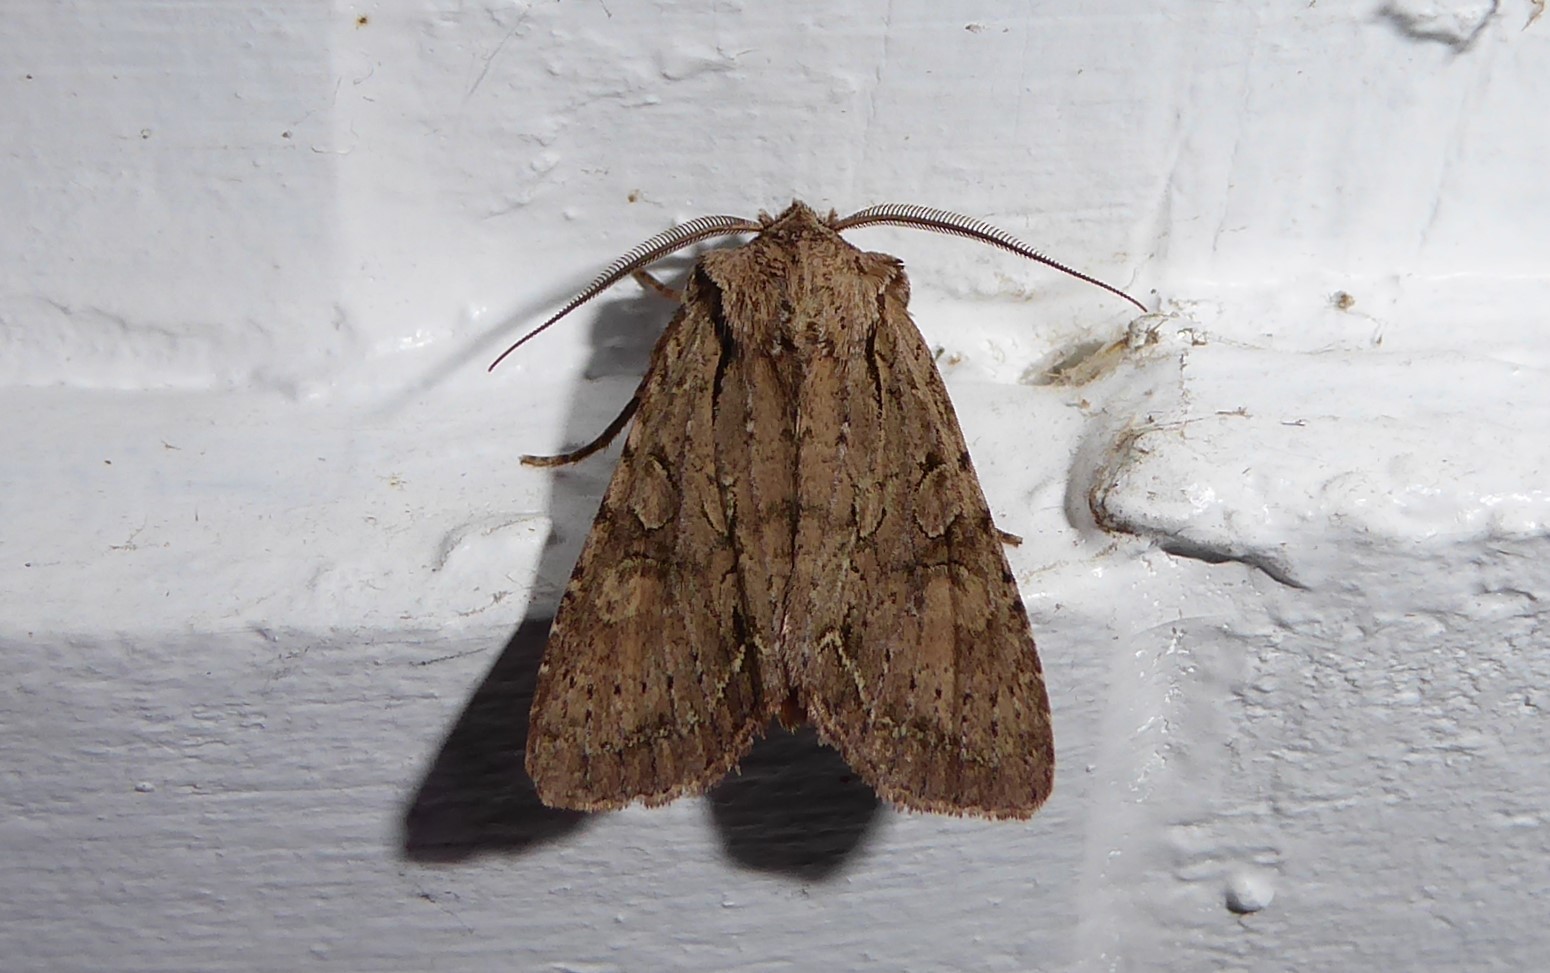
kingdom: Animalia
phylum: Arthropoda
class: Insecta
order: Lepidoptera
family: Noctuidae
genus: Ichneutica
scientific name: Ichneutica
